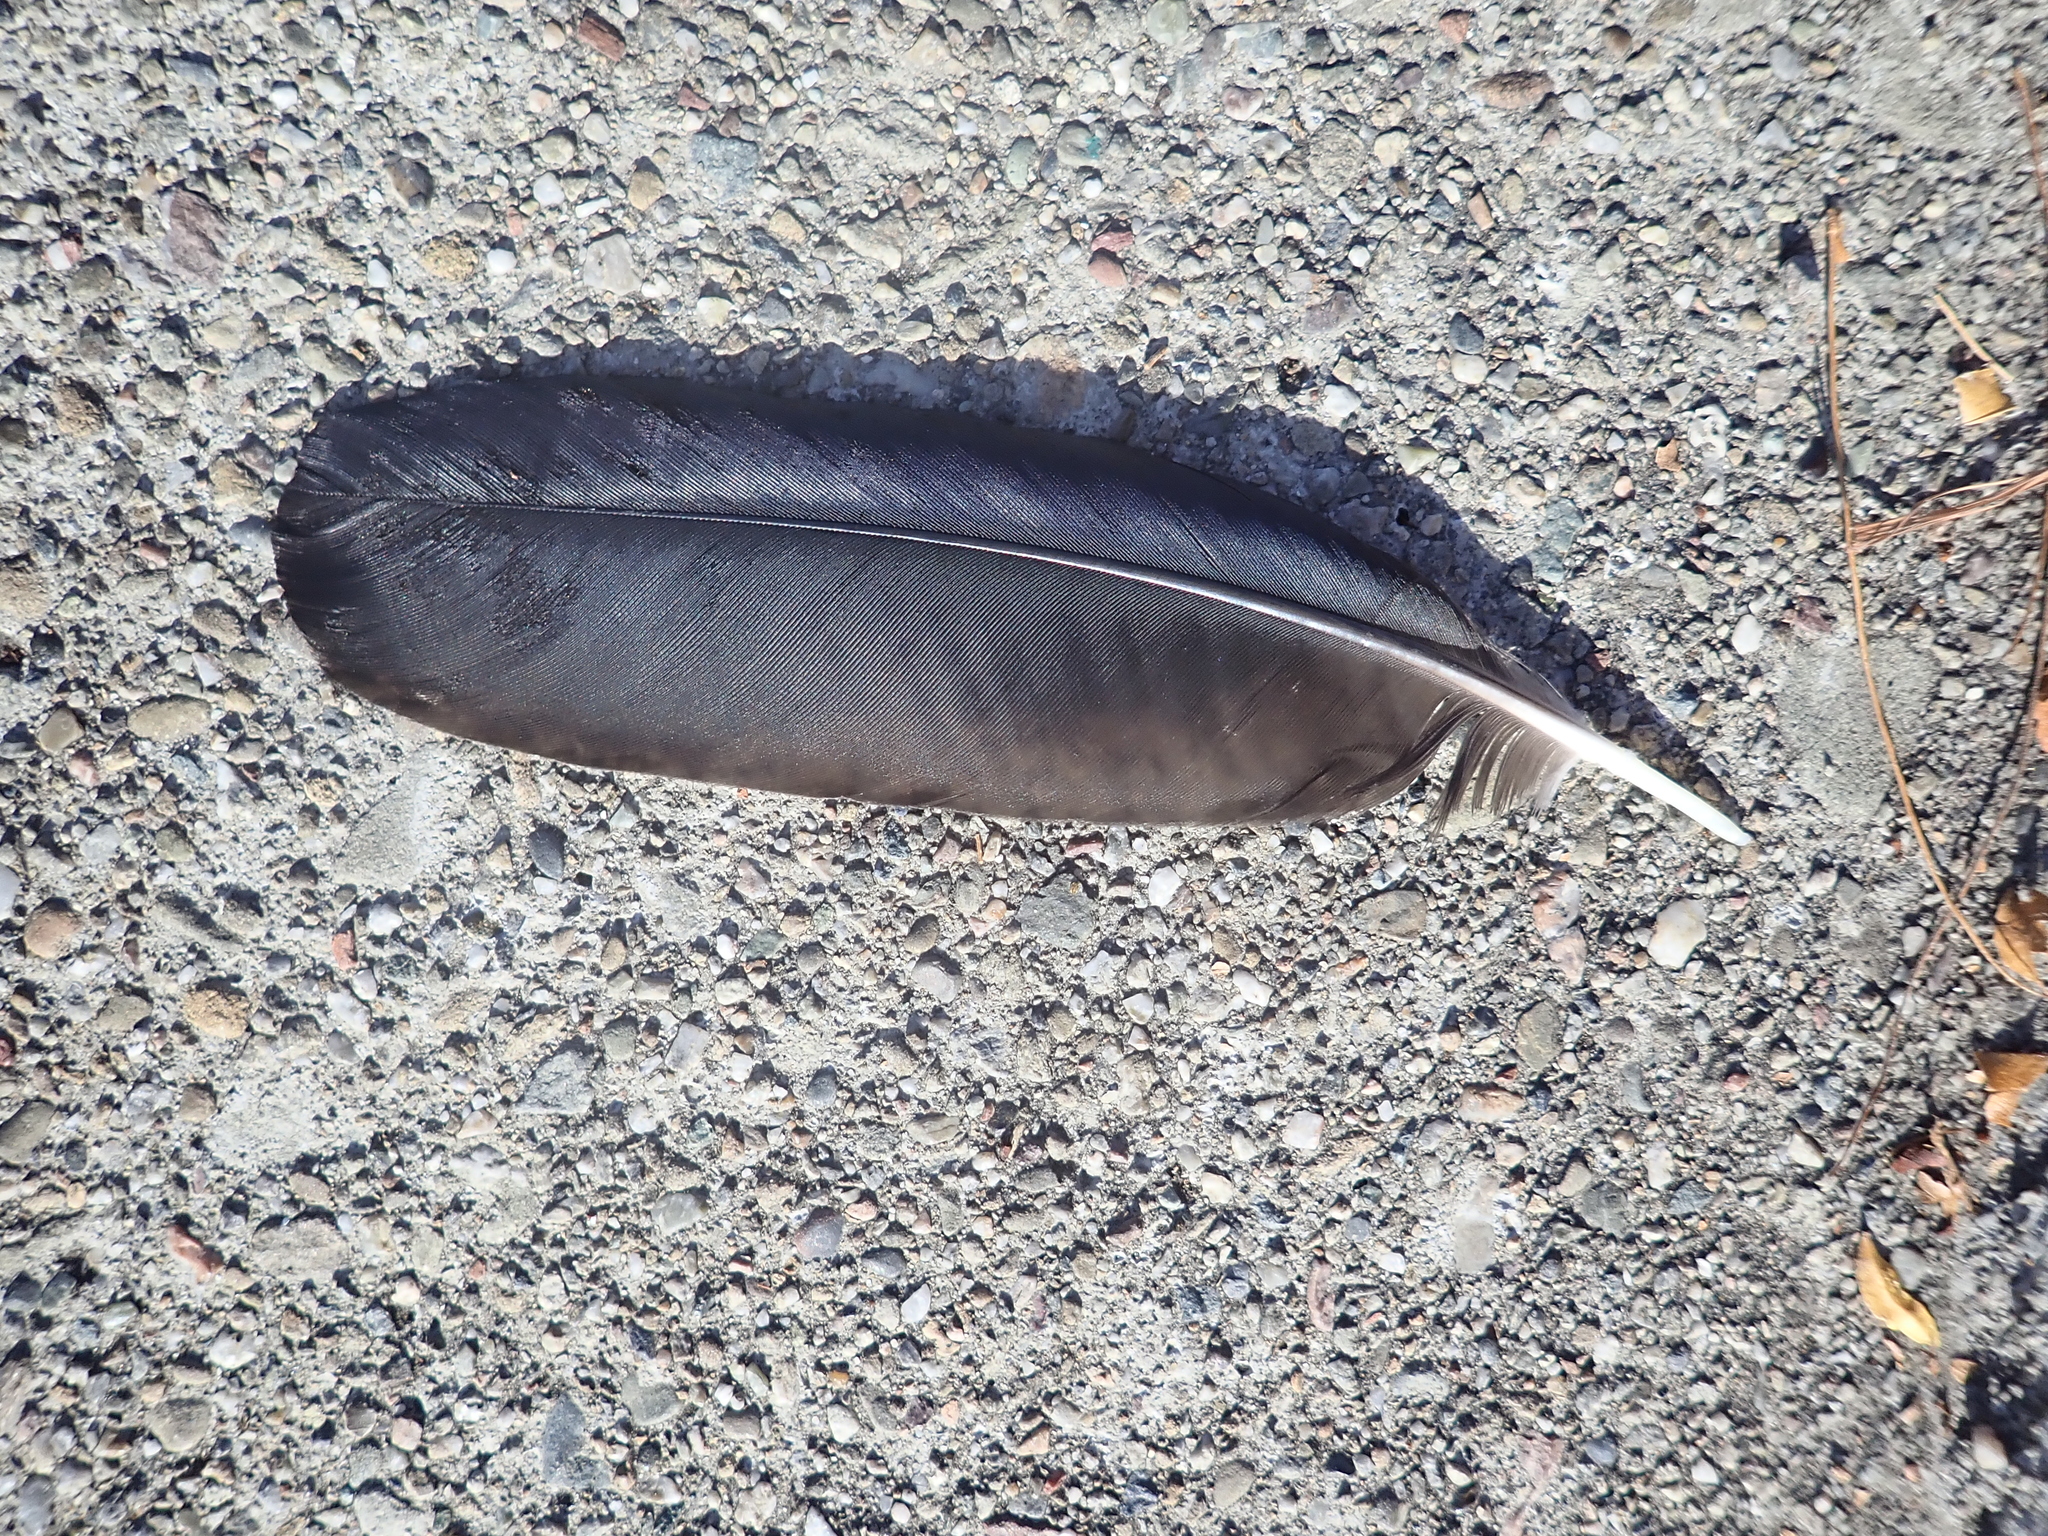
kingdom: Animalia
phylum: Chordata
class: Aves
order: Passeriformes
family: Corvidae
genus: Corvus
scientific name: Corvus brachyrhynchos
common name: American crow
